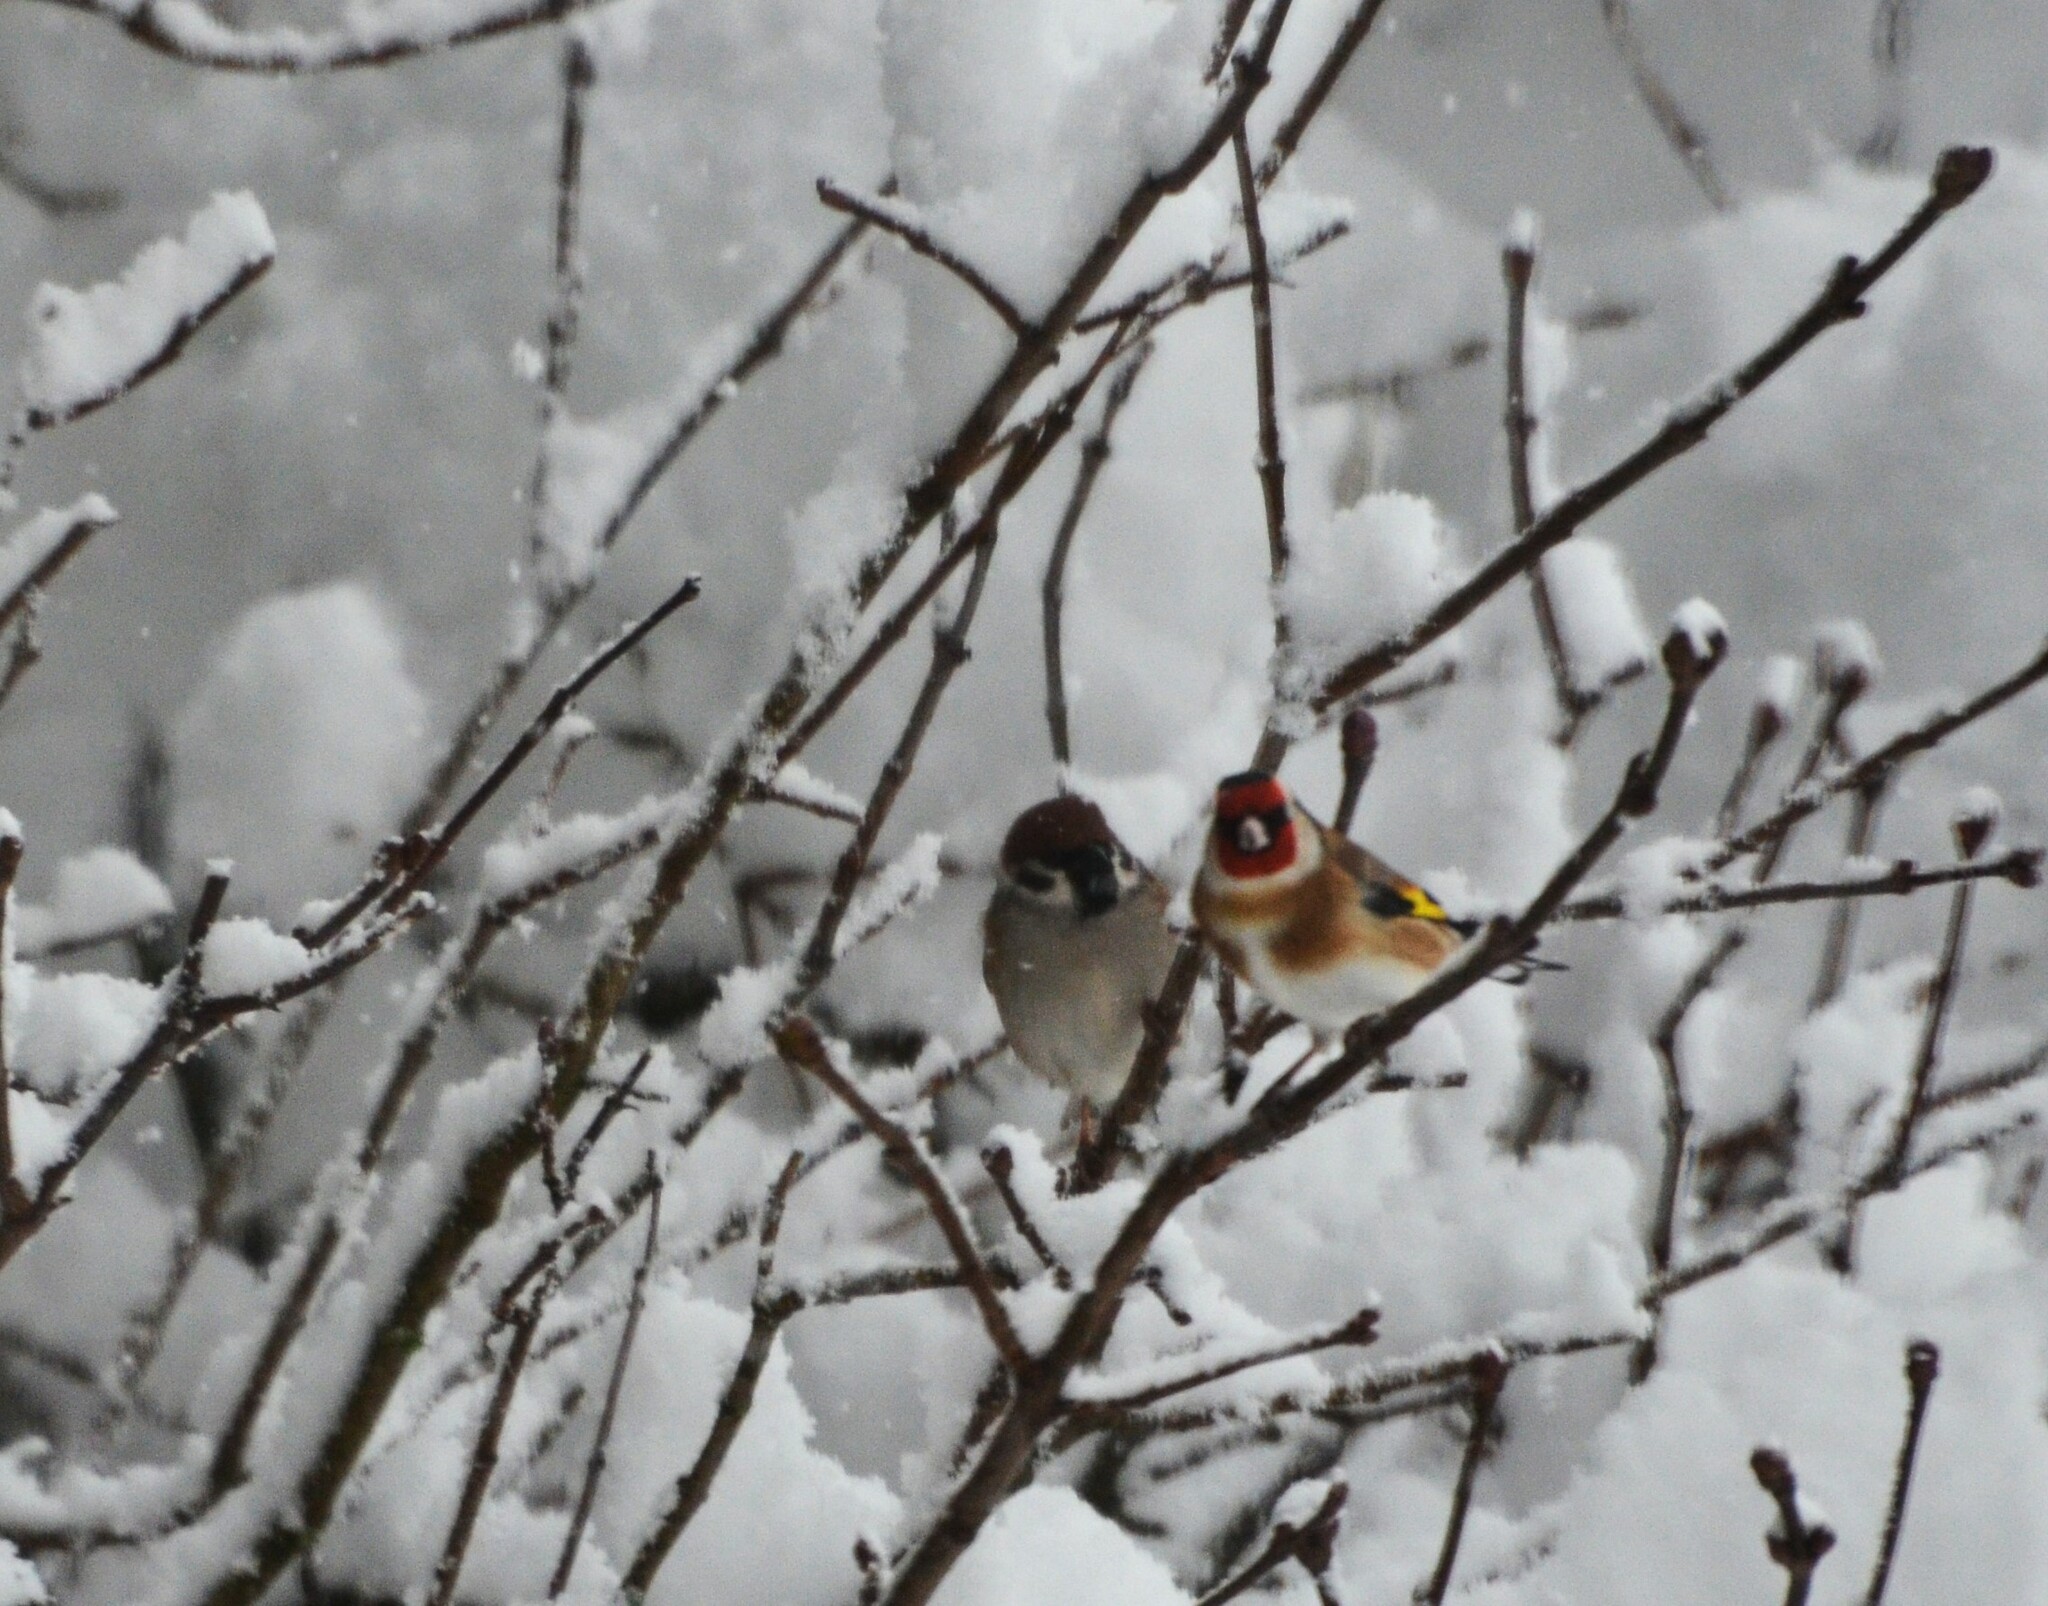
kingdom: Animalia
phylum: Chordata
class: Aves
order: Passeriformes
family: Passeridae
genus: Passer
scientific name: Passer montanus
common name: Eurasian tree sparrow
